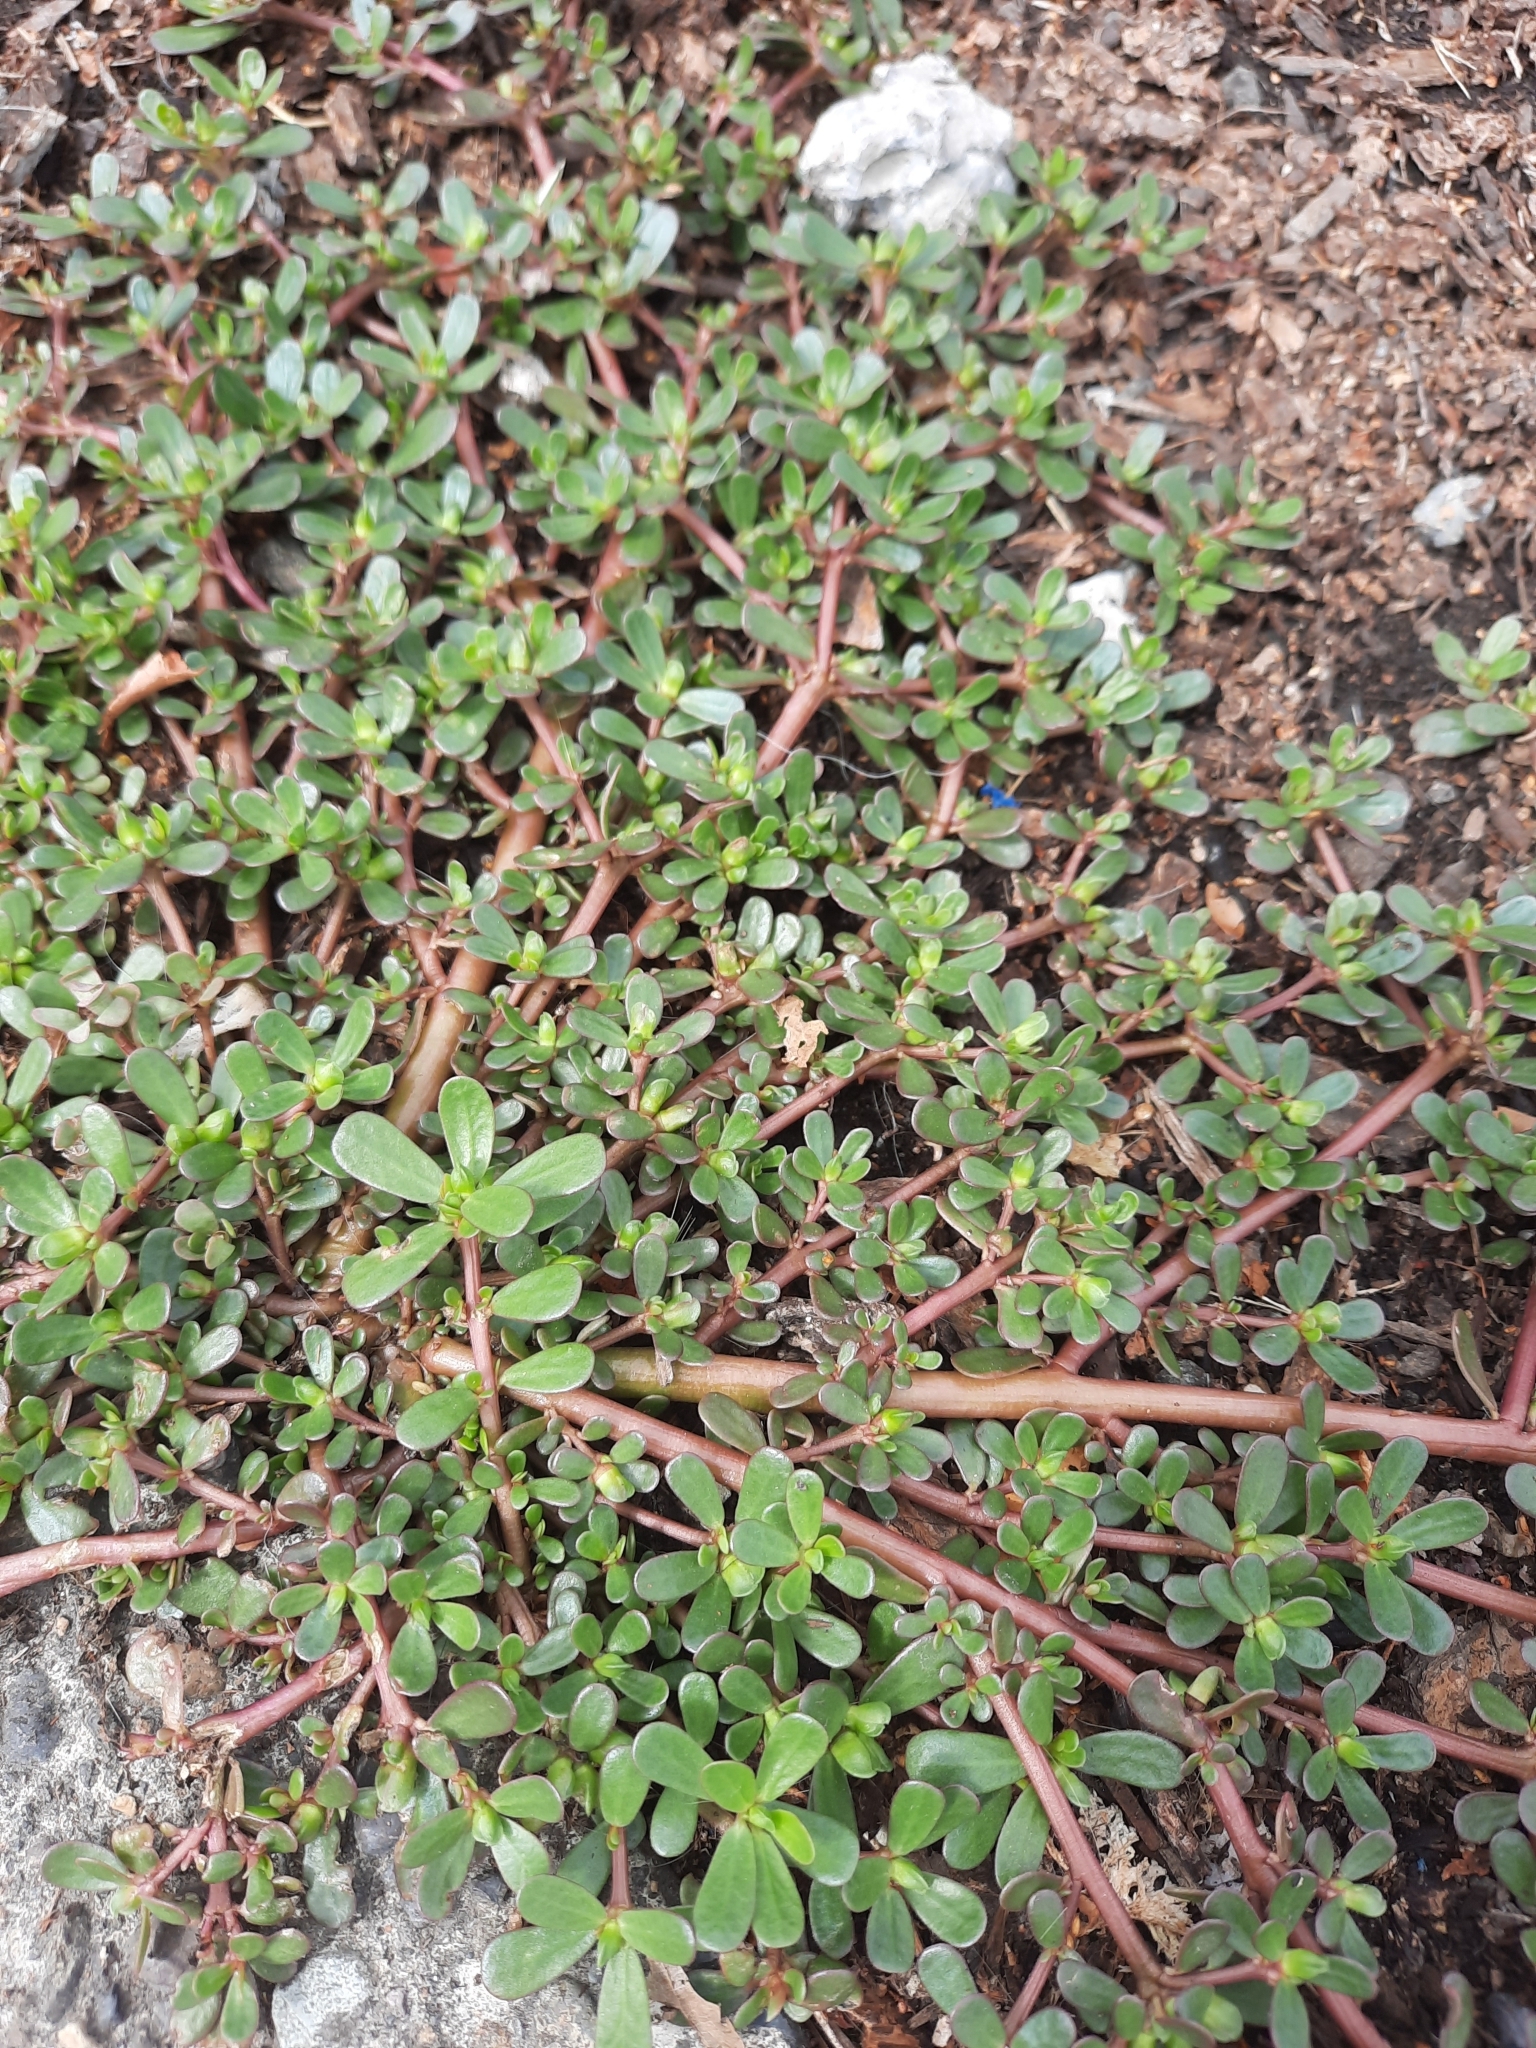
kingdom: Plantae
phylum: Tracheophyta
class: Magnoliopsida
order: Caryophyllales
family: Portulacaceae
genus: Portulaca
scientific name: Portulaca oleracea
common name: Common purslane
